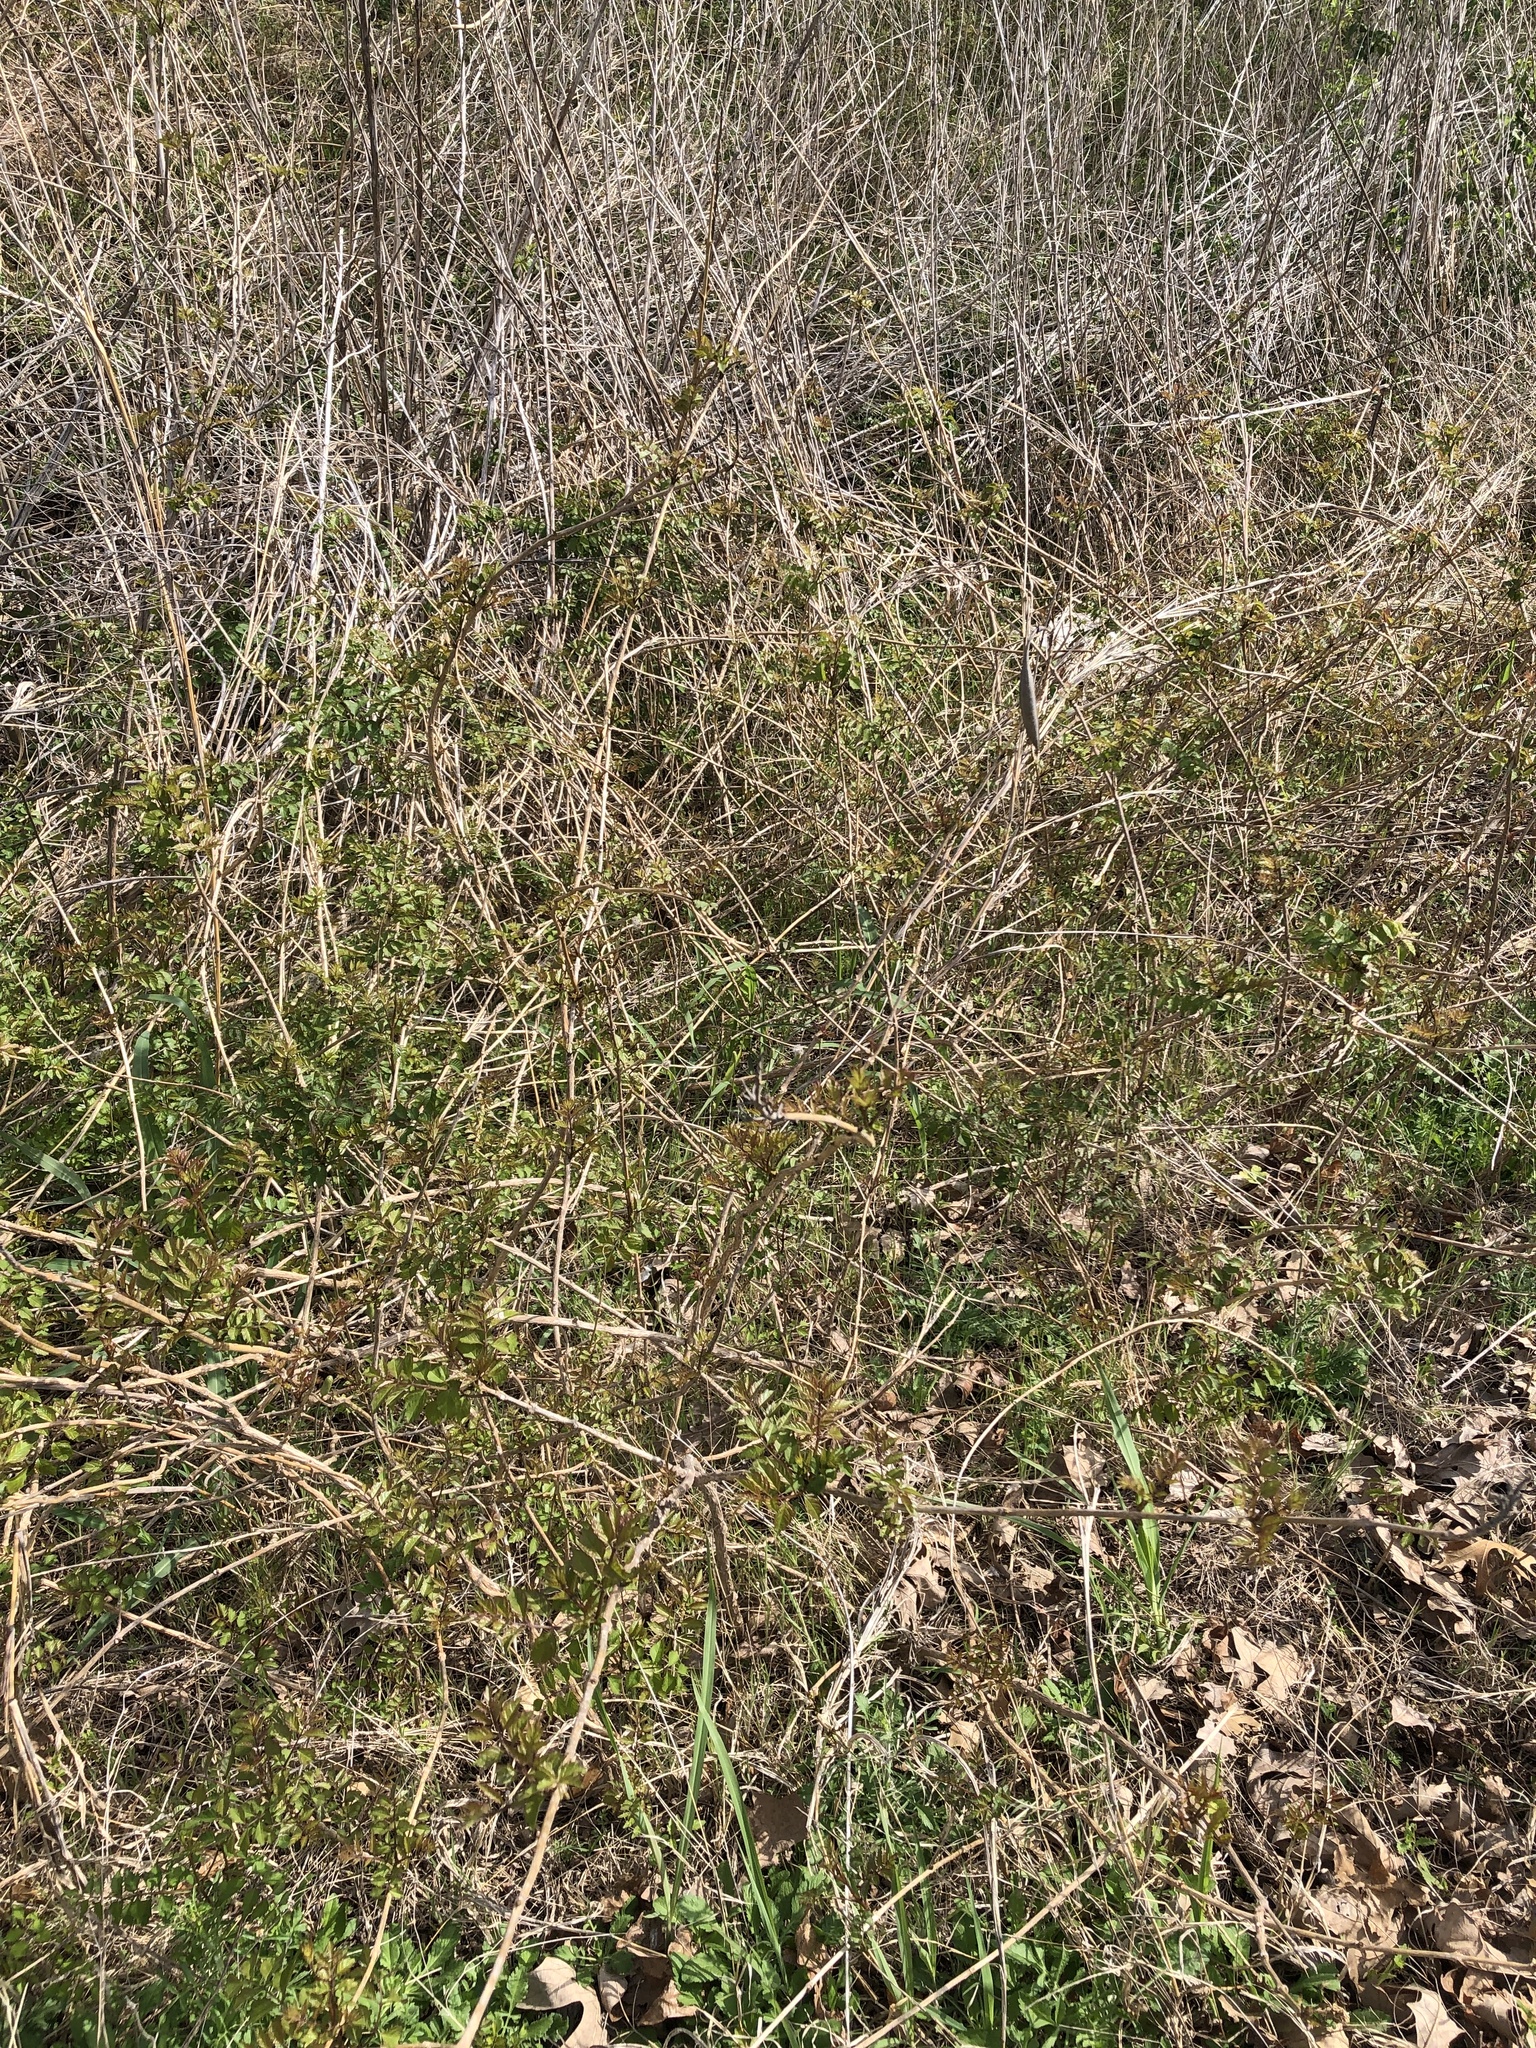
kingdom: Plantae
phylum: Tracheophyta
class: Magnoliopsida
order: Lamiales
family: Bignoniaceae
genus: Campsis
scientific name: Campsis radicans
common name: Trumpet-creeper
